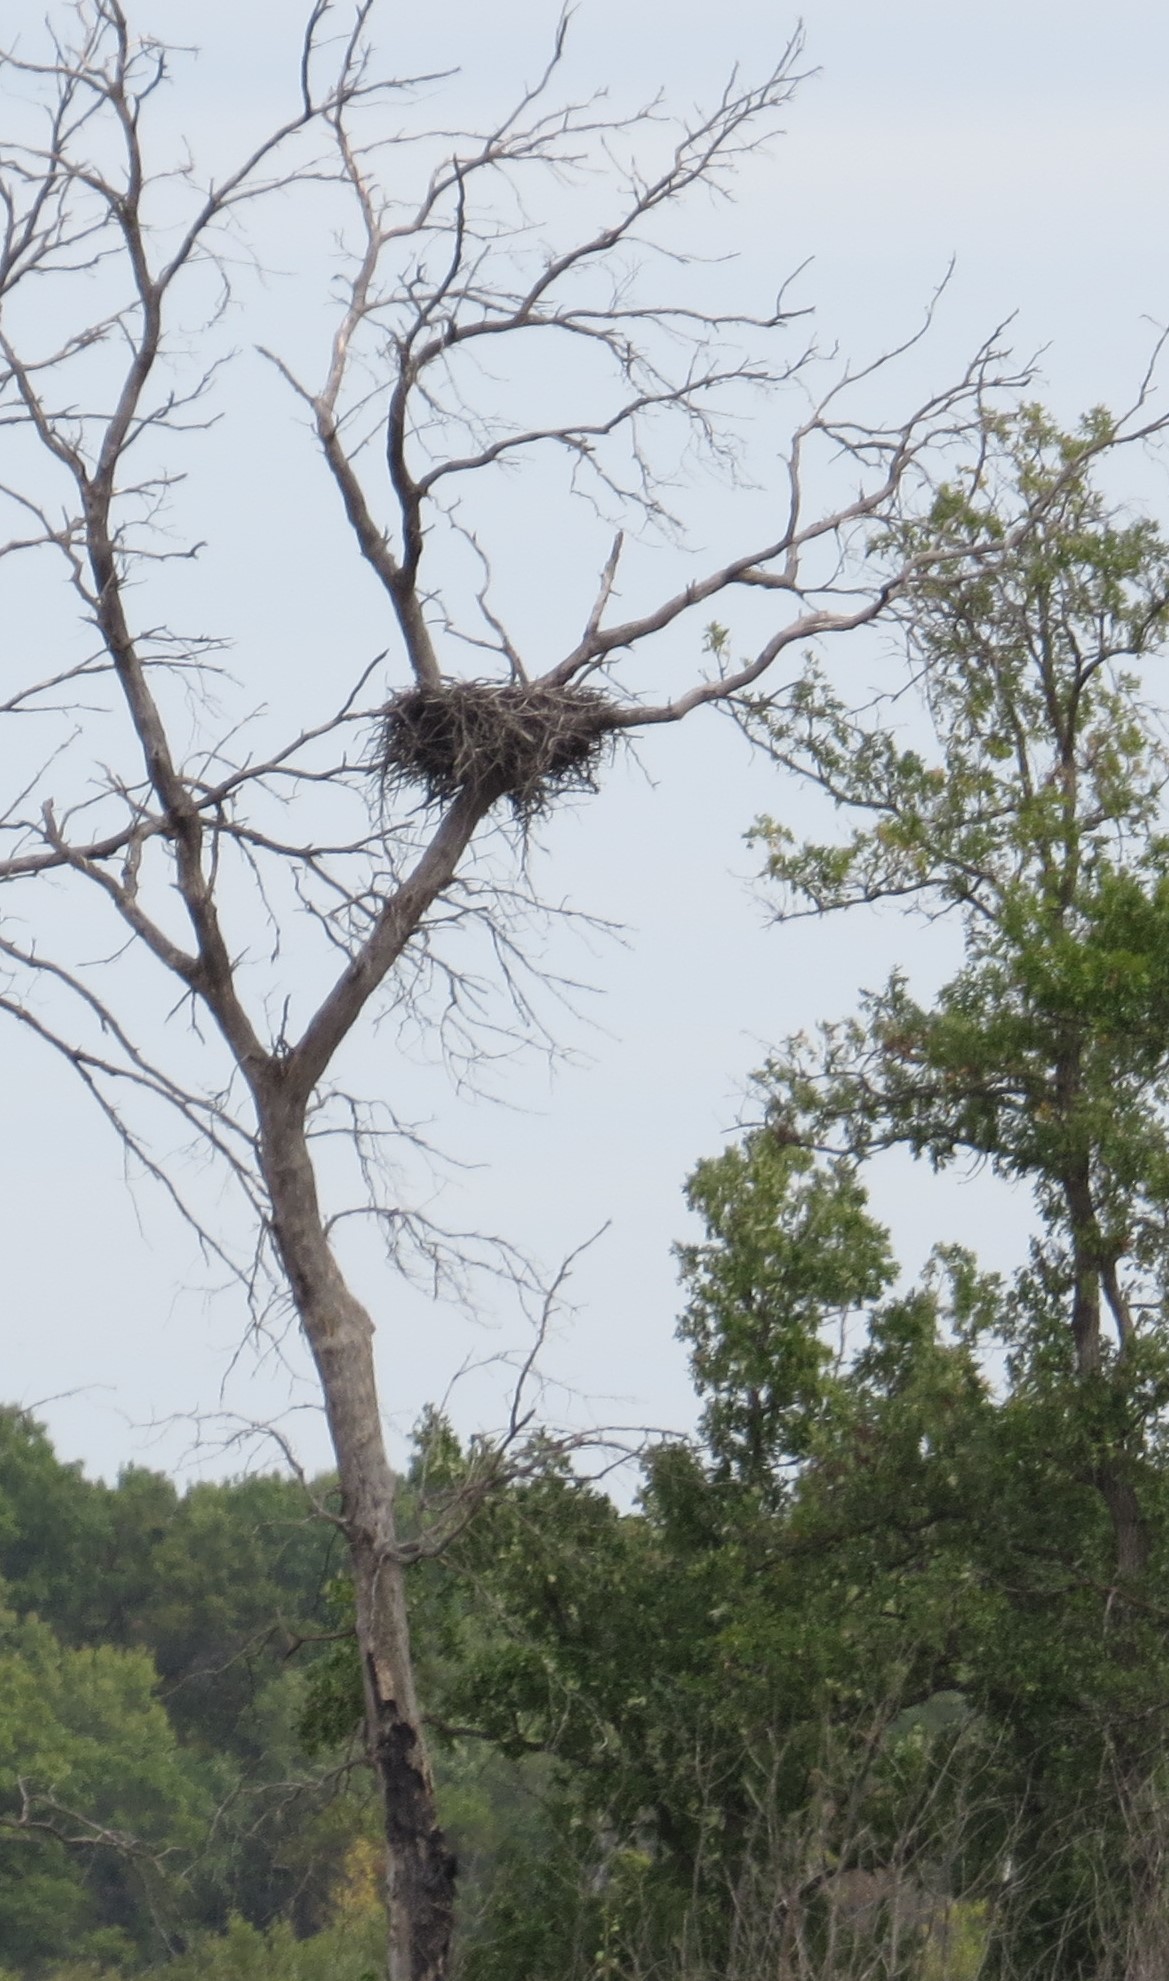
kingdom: Animalia
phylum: Chordata
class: Aves
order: Accipitriformes
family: Accipitridae
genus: Haliaeetus
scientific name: Haliaeetus leucocephalus
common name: Bald eagle
